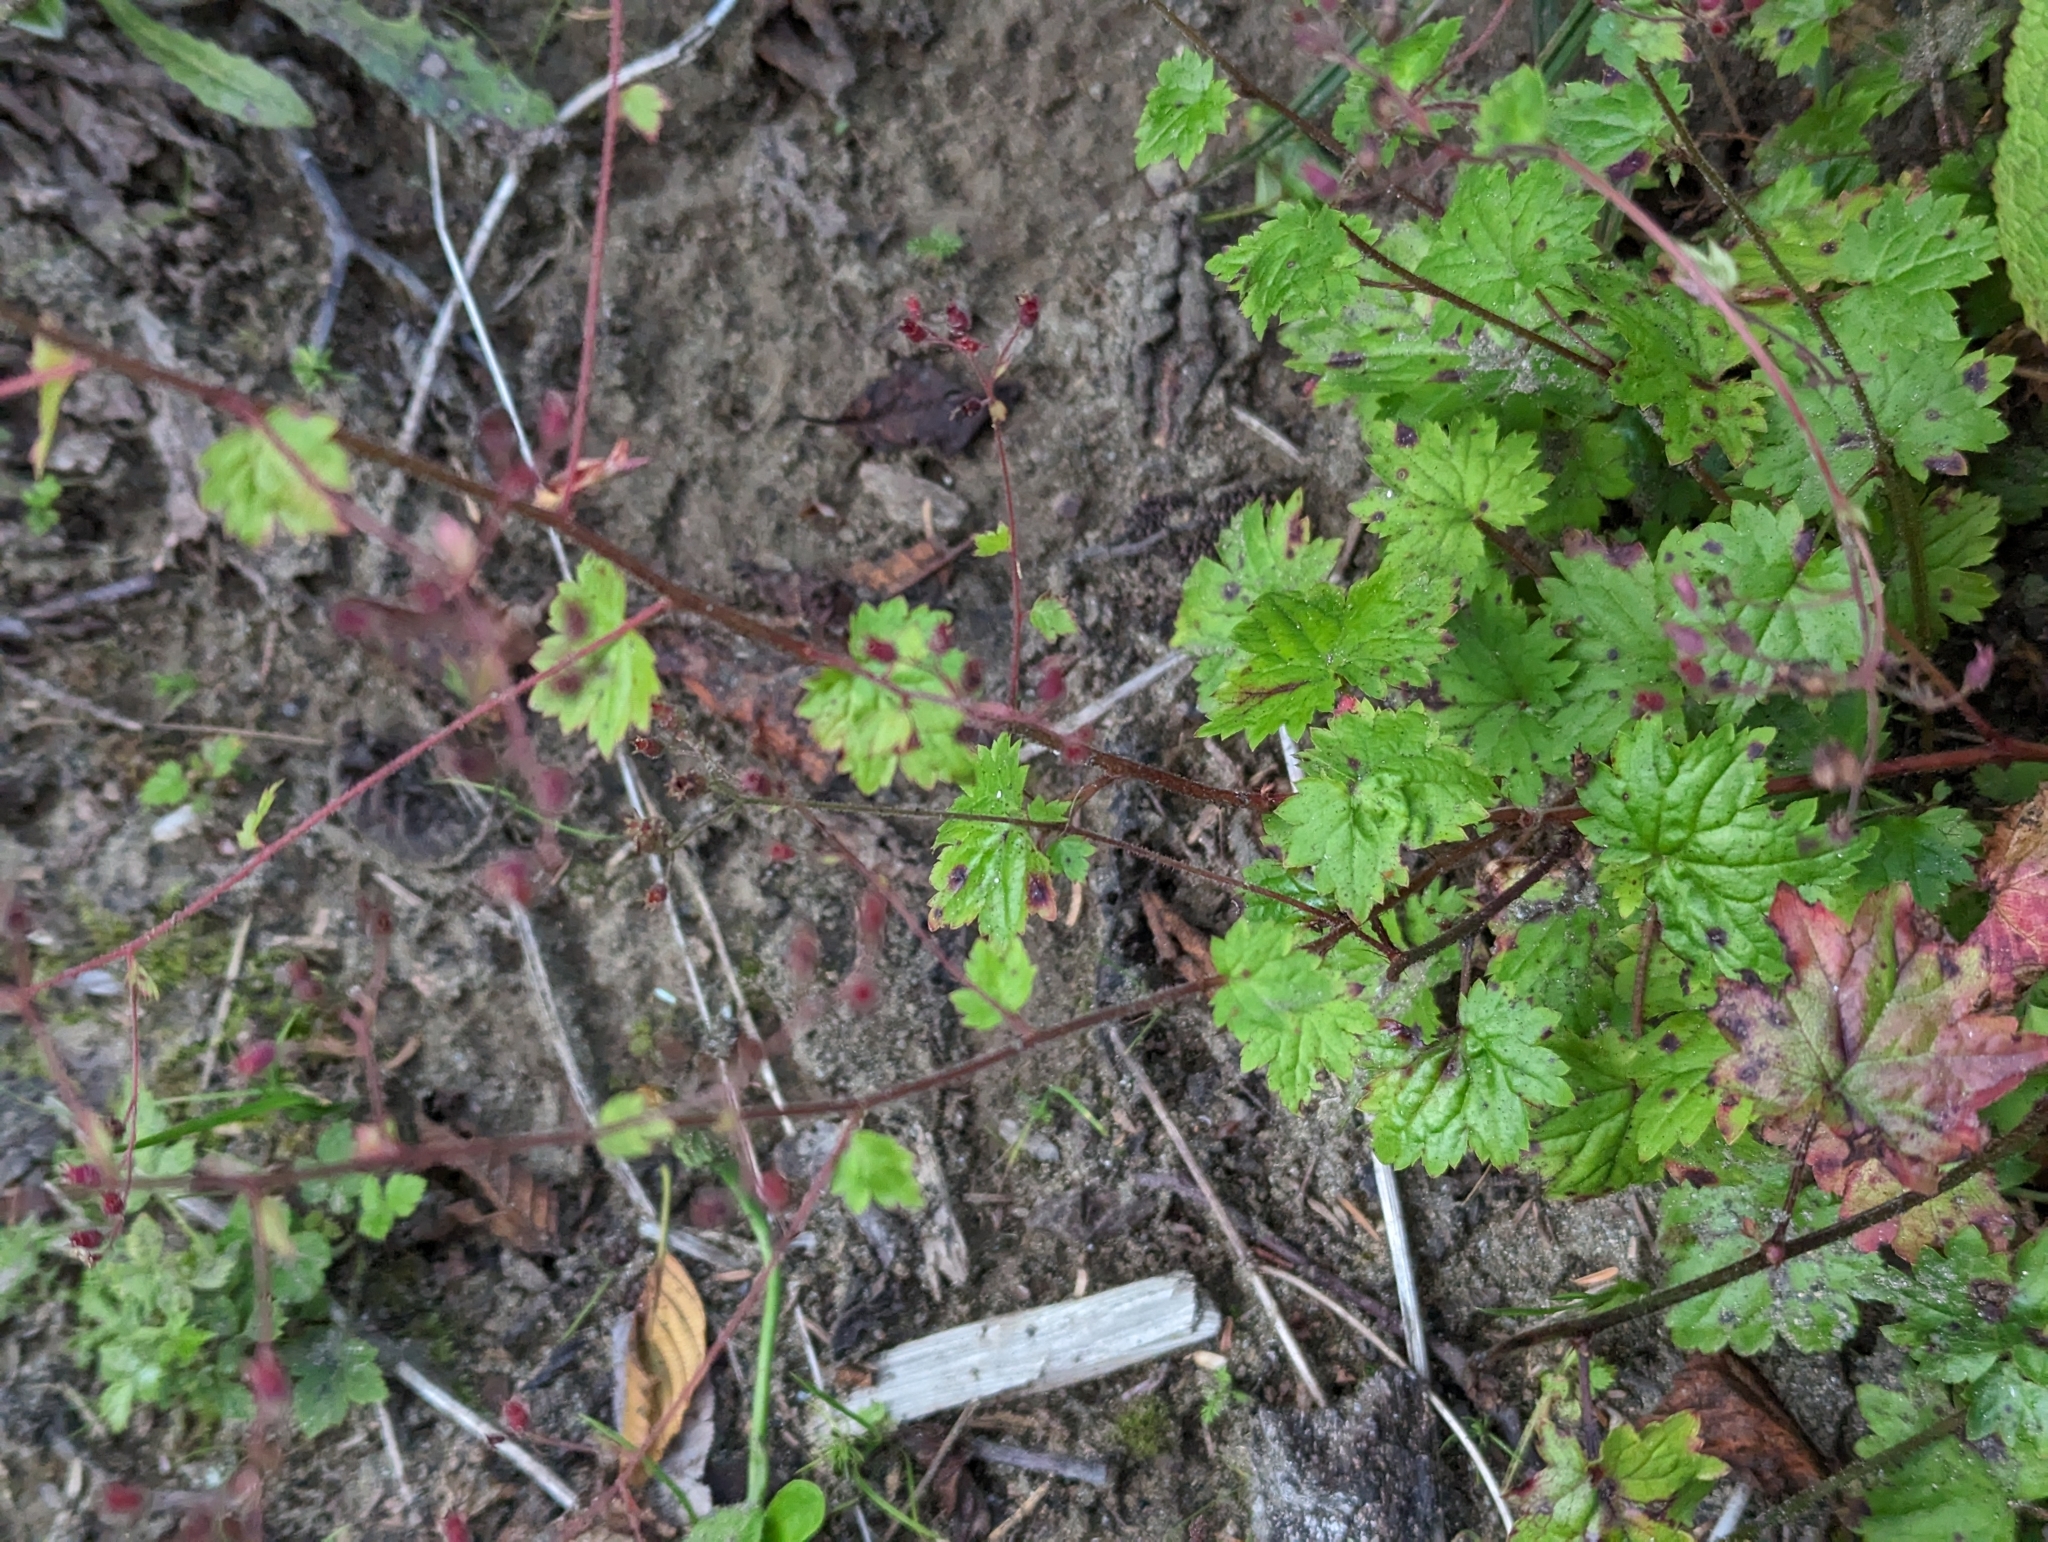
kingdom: Plantae
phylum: Tracheophyta
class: Magnoliopsida
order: Ranunculales
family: Ranunculaceae
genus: Aquilegia
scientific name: Aquilegia formosa
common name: Sitka columbine
